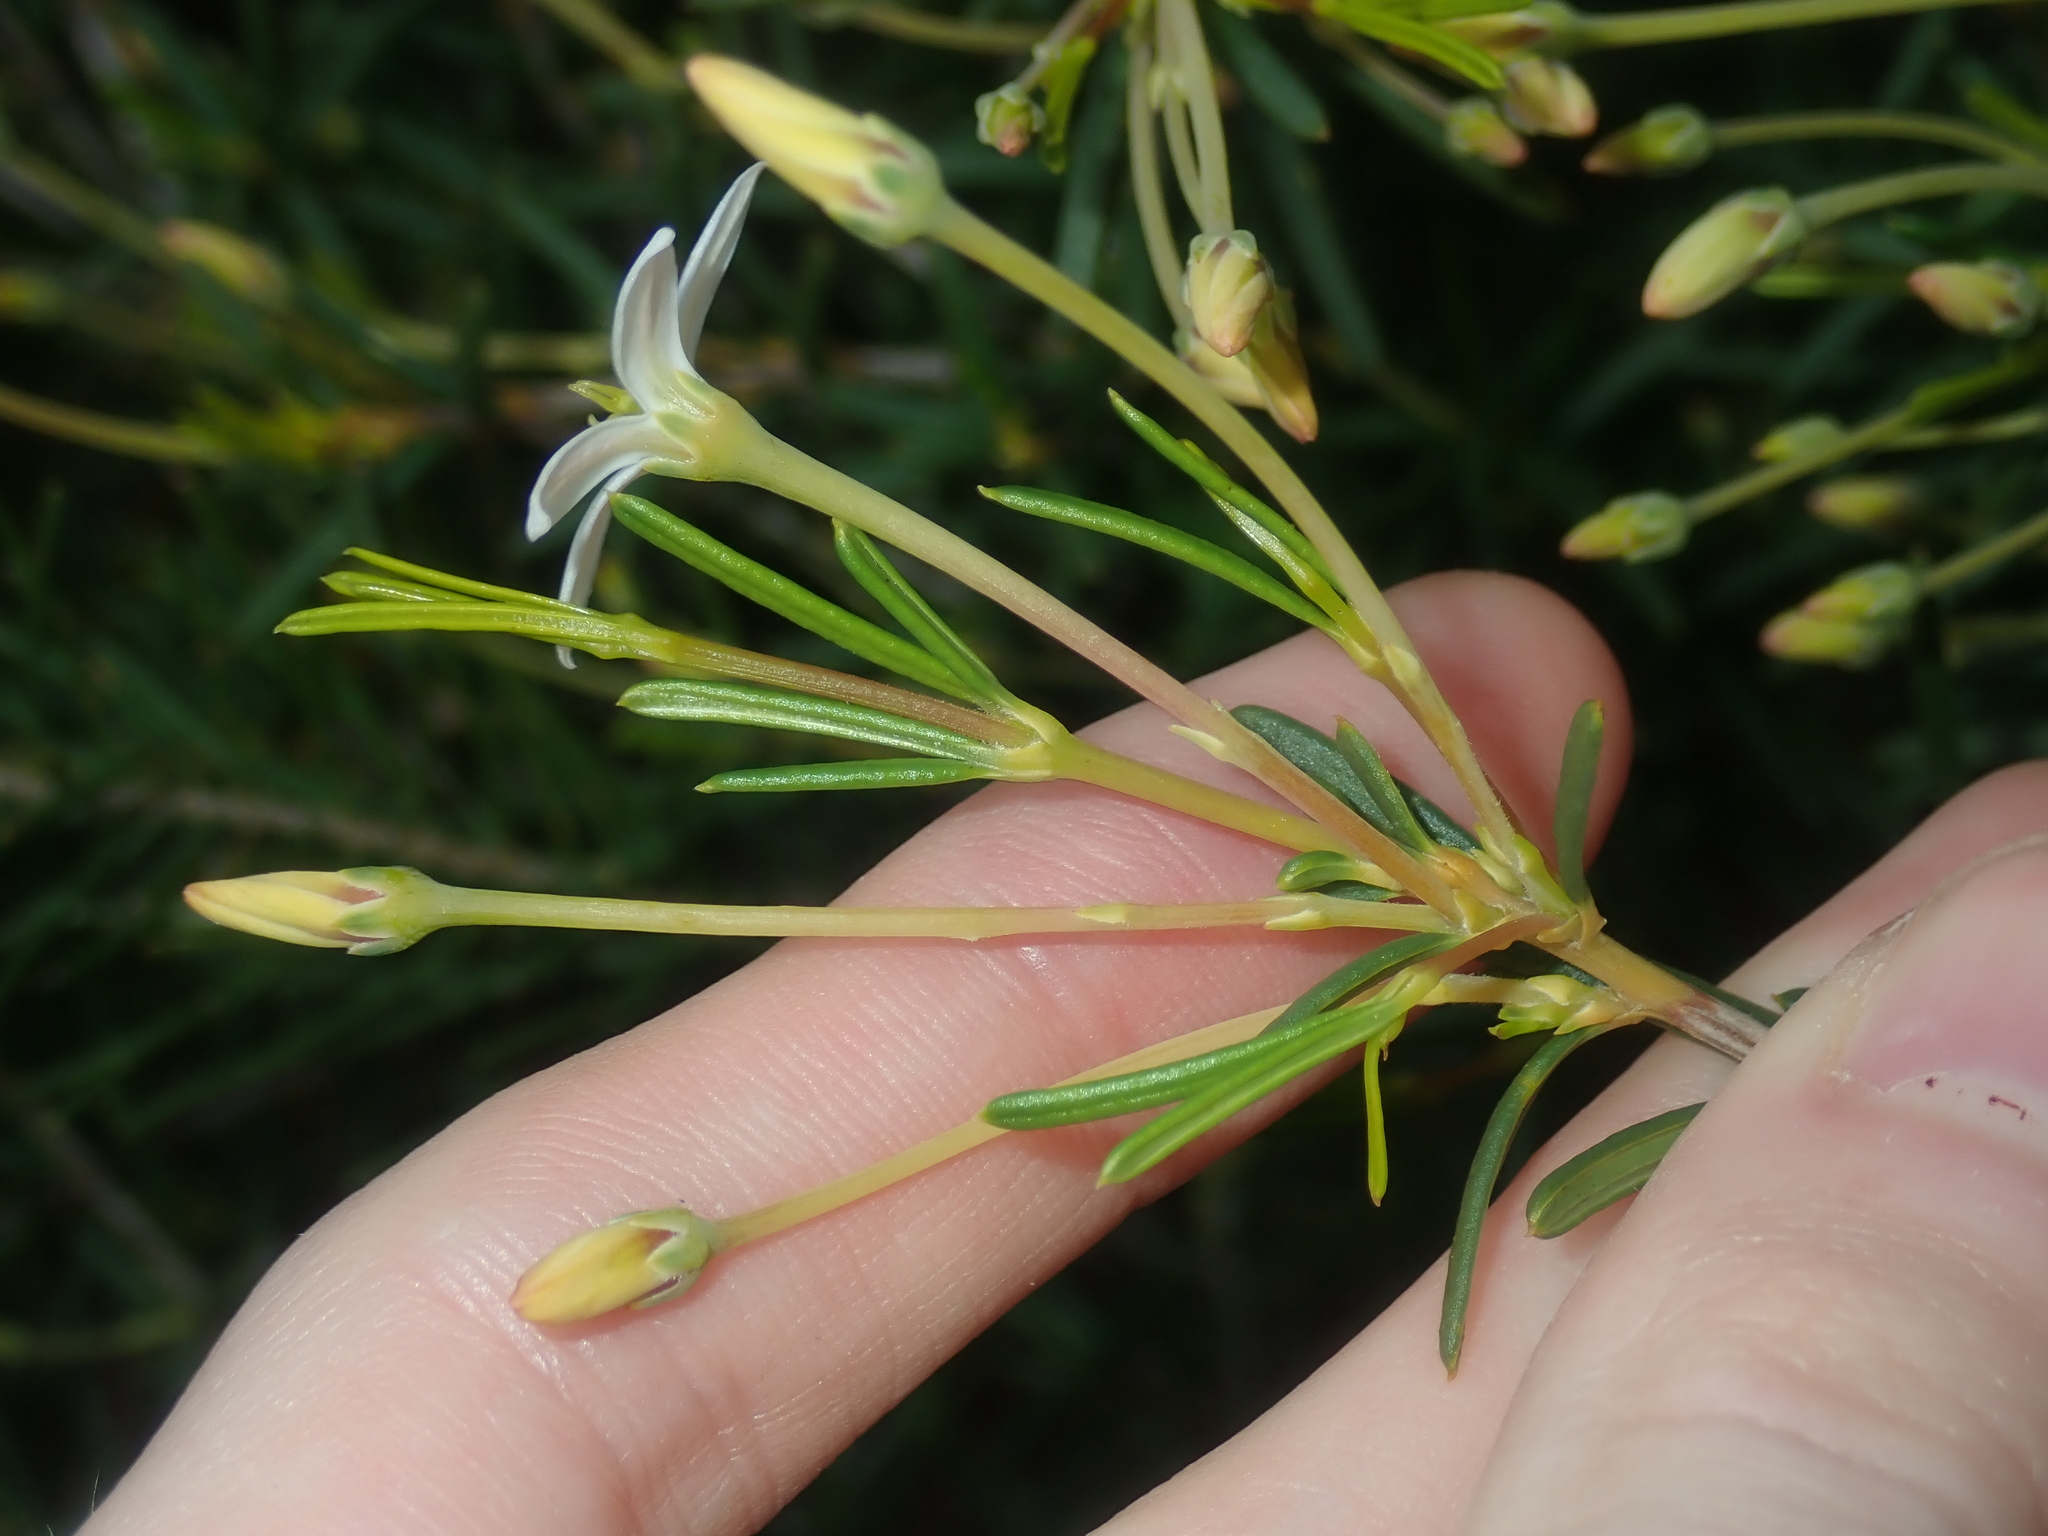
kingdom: Plantae
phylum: Tracheophyta
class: Magnoliopsida
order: Malpighiales
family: Euphorbiaceae
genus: Ricinocarpos
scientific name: Ricinocarpos undulatus
